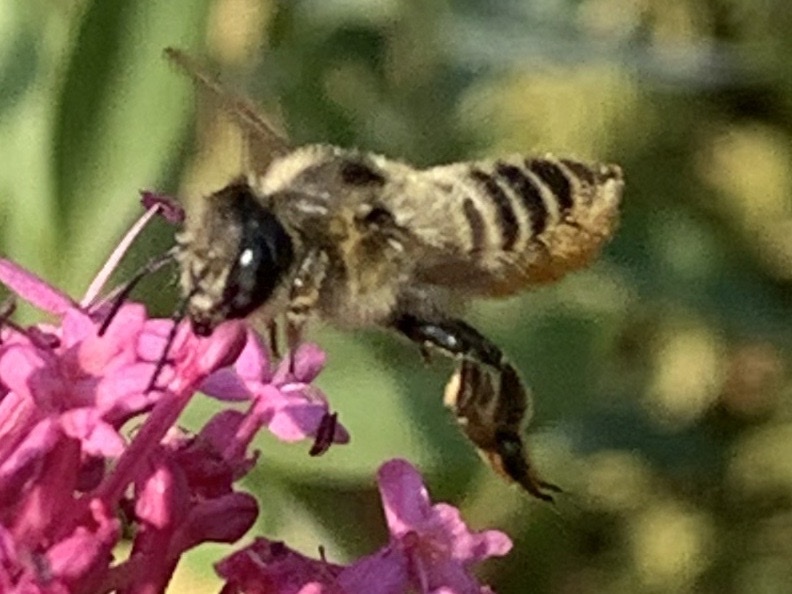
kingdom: Animalia
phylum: Arthropoda
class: Insecta
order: Hymenoptera
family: Megachilidae
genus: Megachile
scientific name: Megachile perihirta
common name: Western leafcutter
